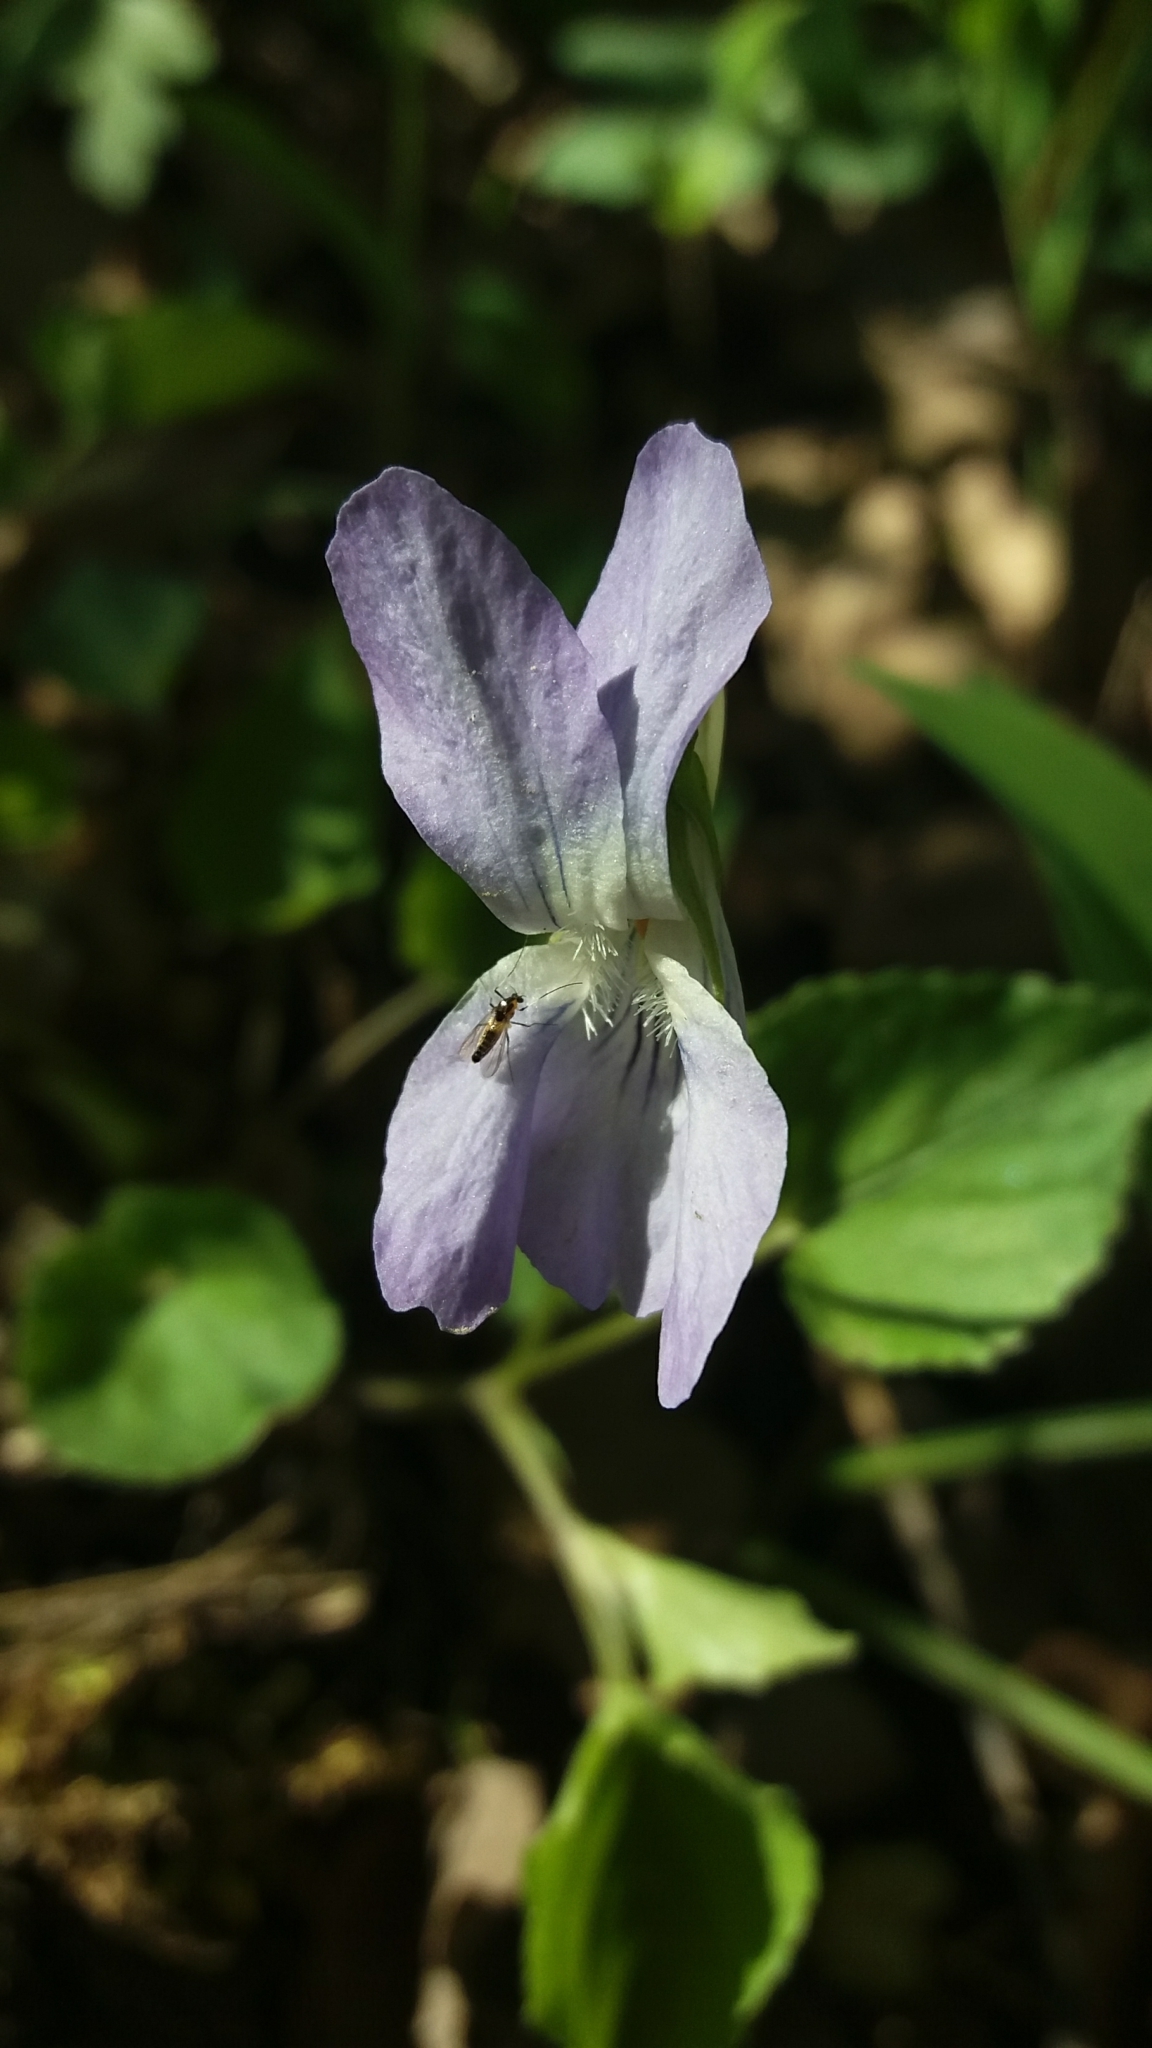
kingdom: Plantae
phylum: Tracheophyta
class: Magnoliopsida
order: Malpighiales
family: Violaceae
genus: Viola
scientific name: Viola riviniana
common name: Common dog-violet
